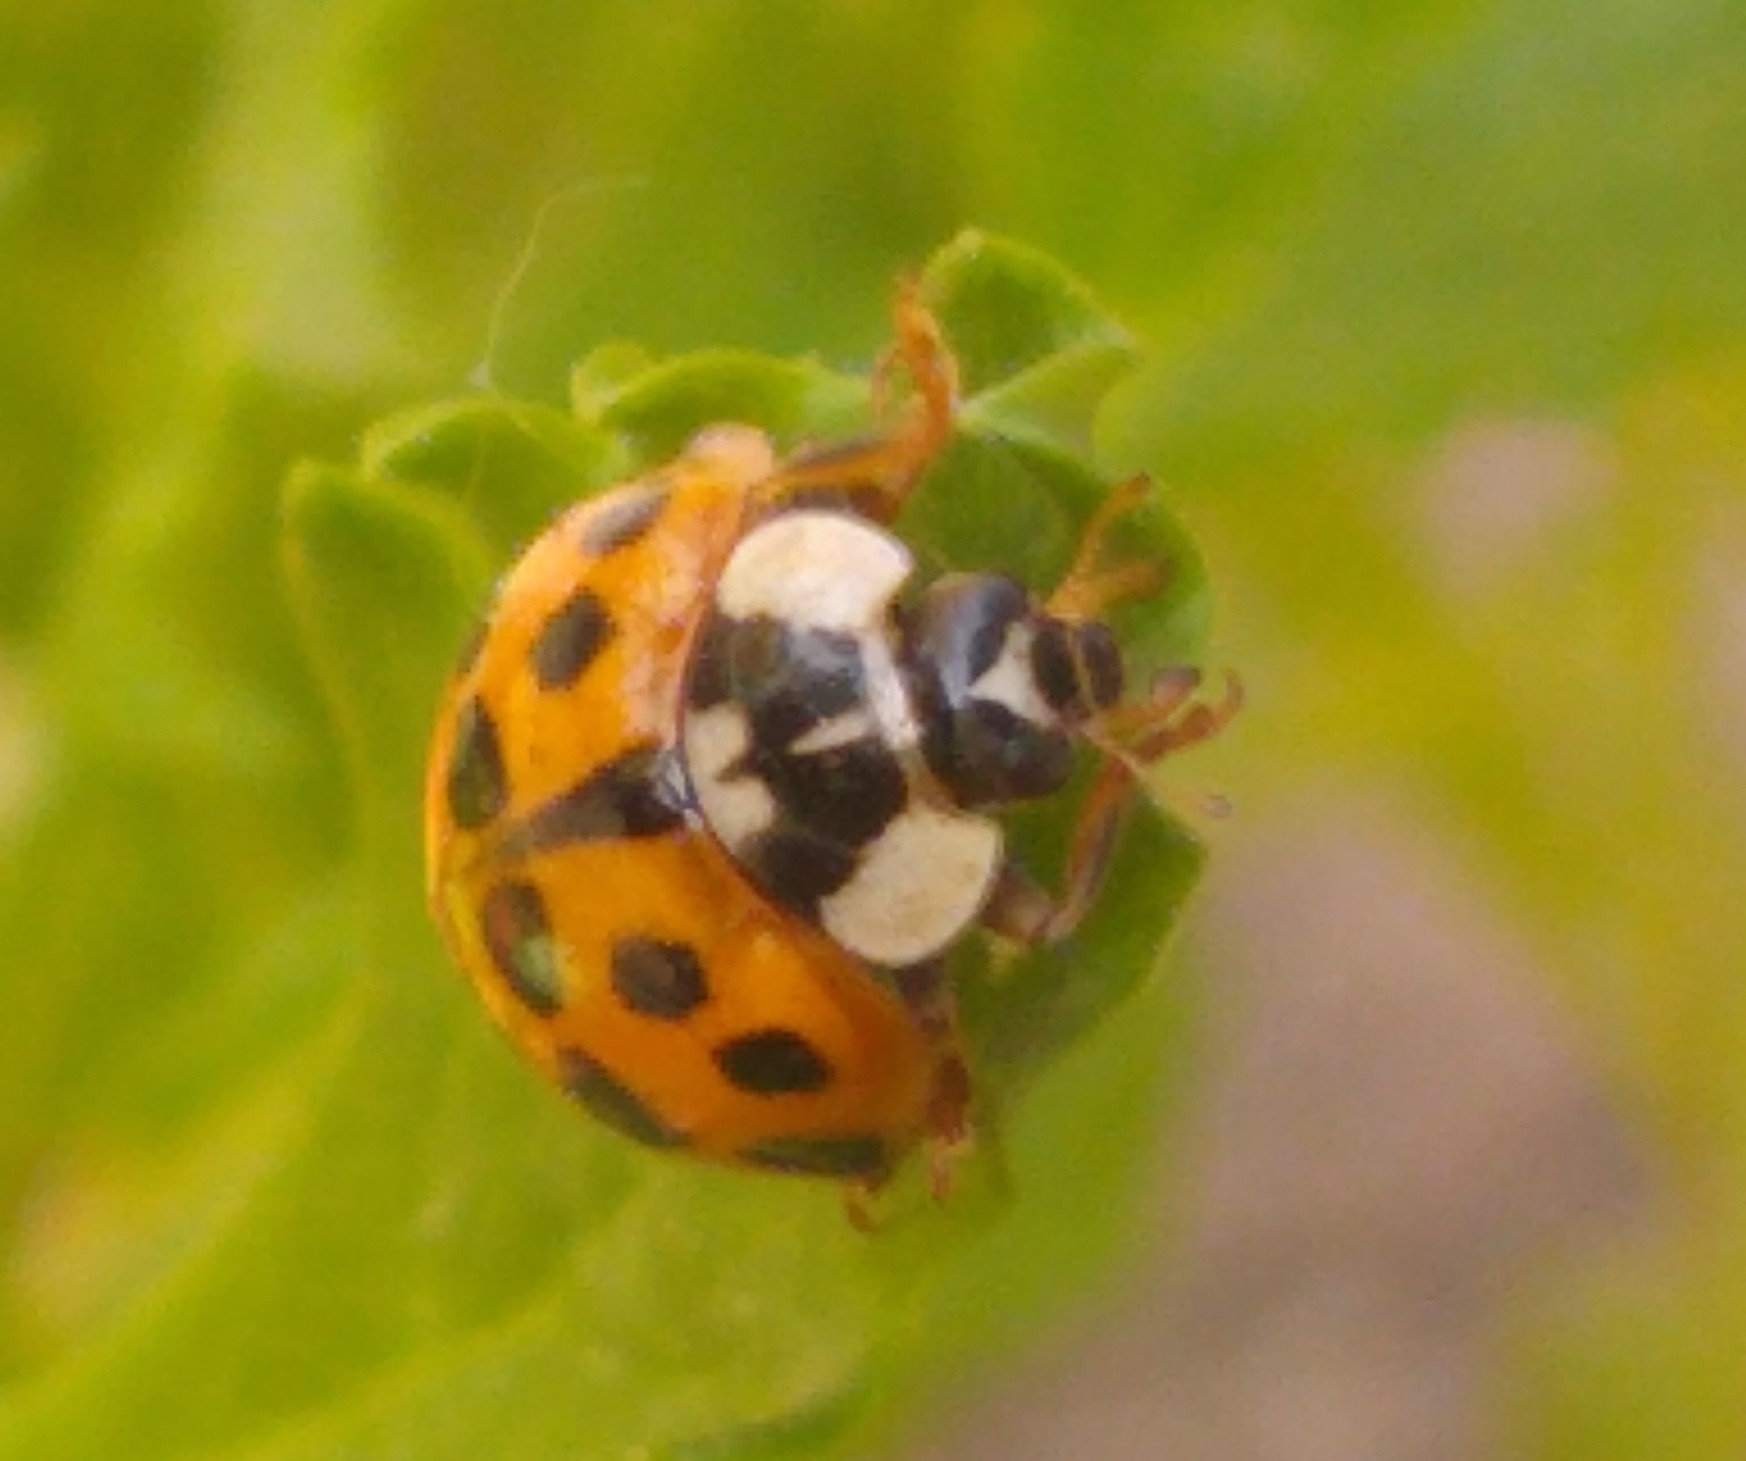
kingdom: Animalia
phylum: Arthropoda
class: Insecta
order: Coleoptera
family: Coccinellidae
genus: Harmonia
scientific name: Harmonia axyridis
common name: Harlequin ladybird
